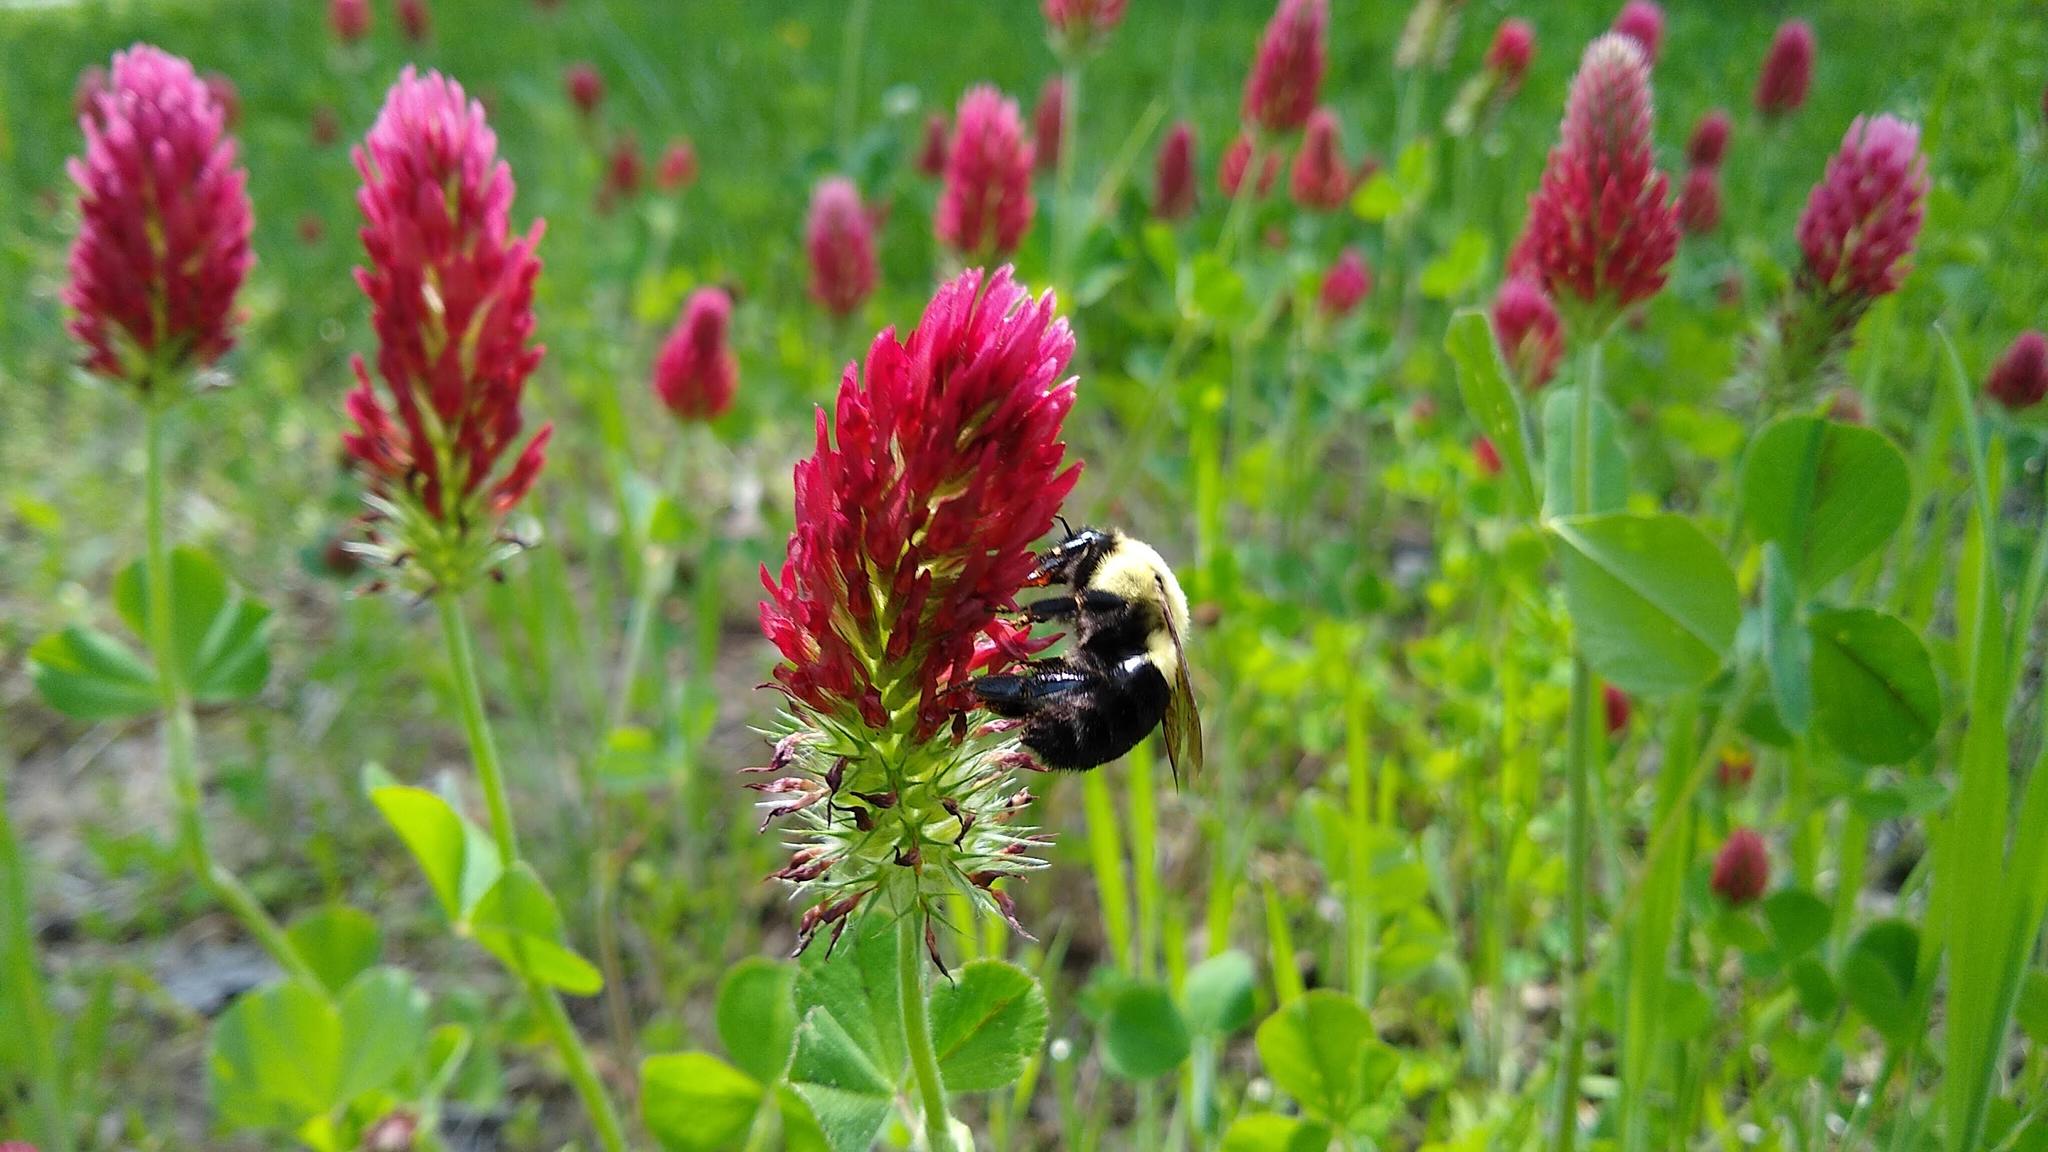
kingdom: Animalia
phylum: Arthropoda
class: Insecta
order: Hymenoptera
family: Apidae
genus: Bombus
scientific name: Bombus impatiens
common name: Common eastern bumble bee
